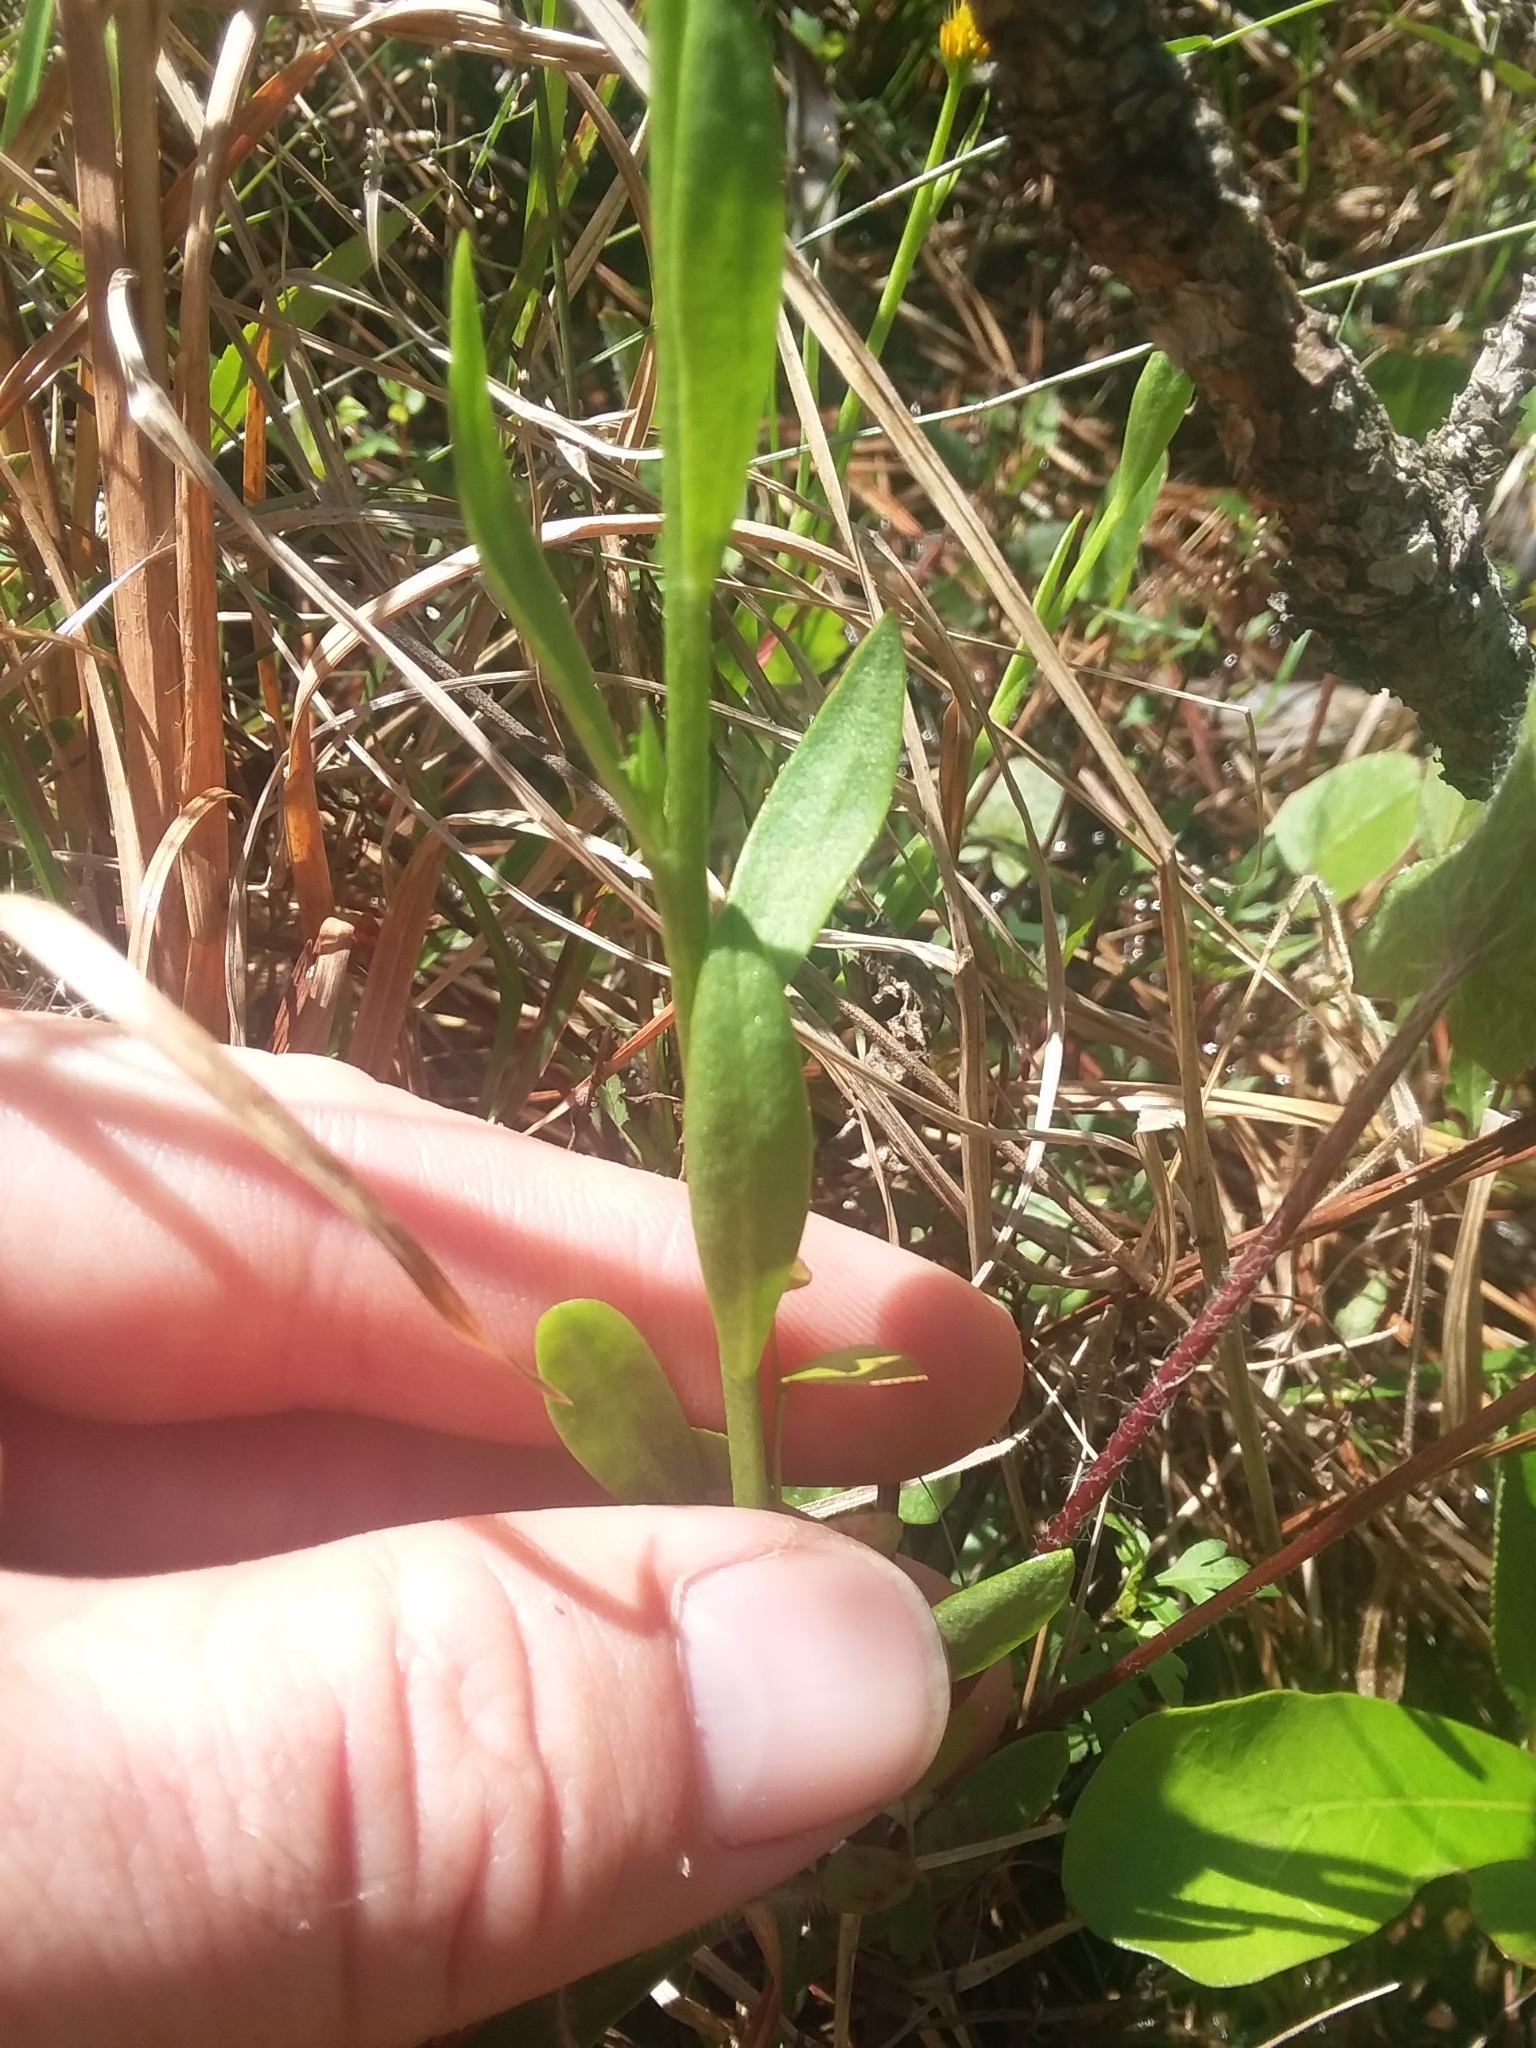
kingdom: Plantae
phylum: Tracheophyta
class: Magnoliopsida
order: Fabales
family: Polygalaceae
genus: Polygala
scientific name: Polygala lutea
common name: Orange milkwort
